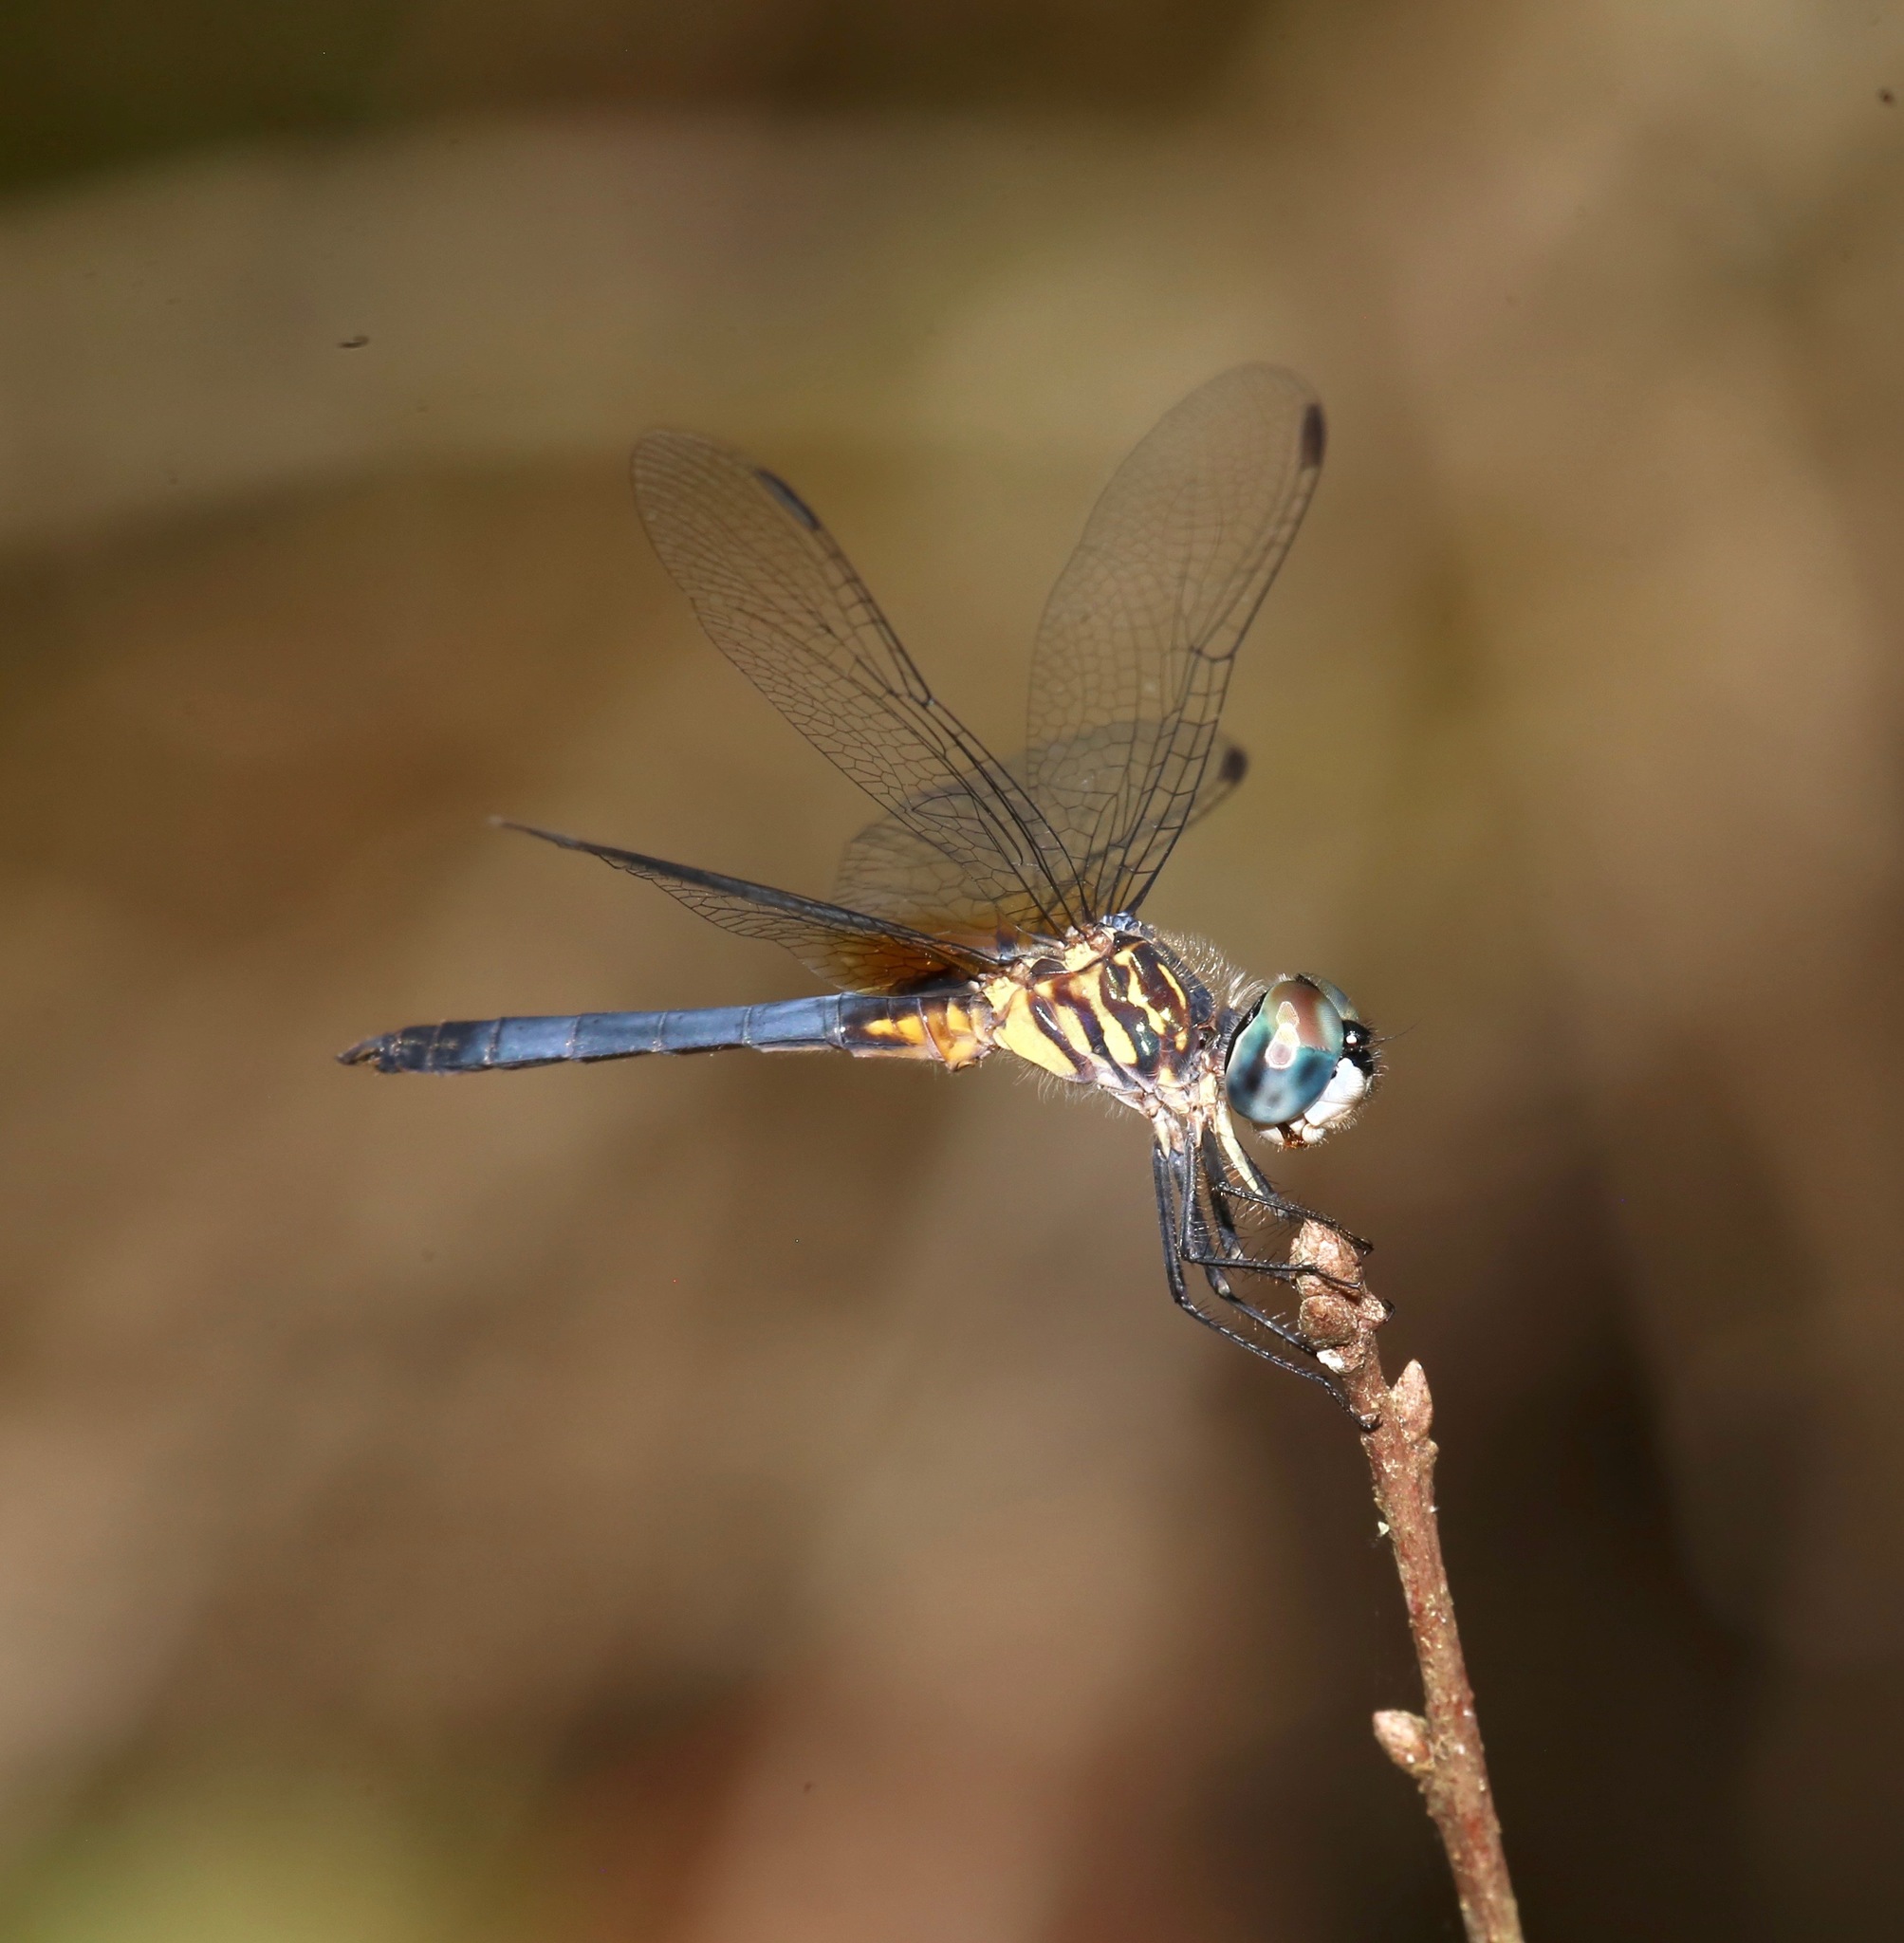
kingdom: Animalia
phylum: Arthropoda
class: Insecta
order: Odonata
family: Libellulidae
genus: Pachydiplax
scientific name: Pachydiplax longipennis
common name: Blue dasher
